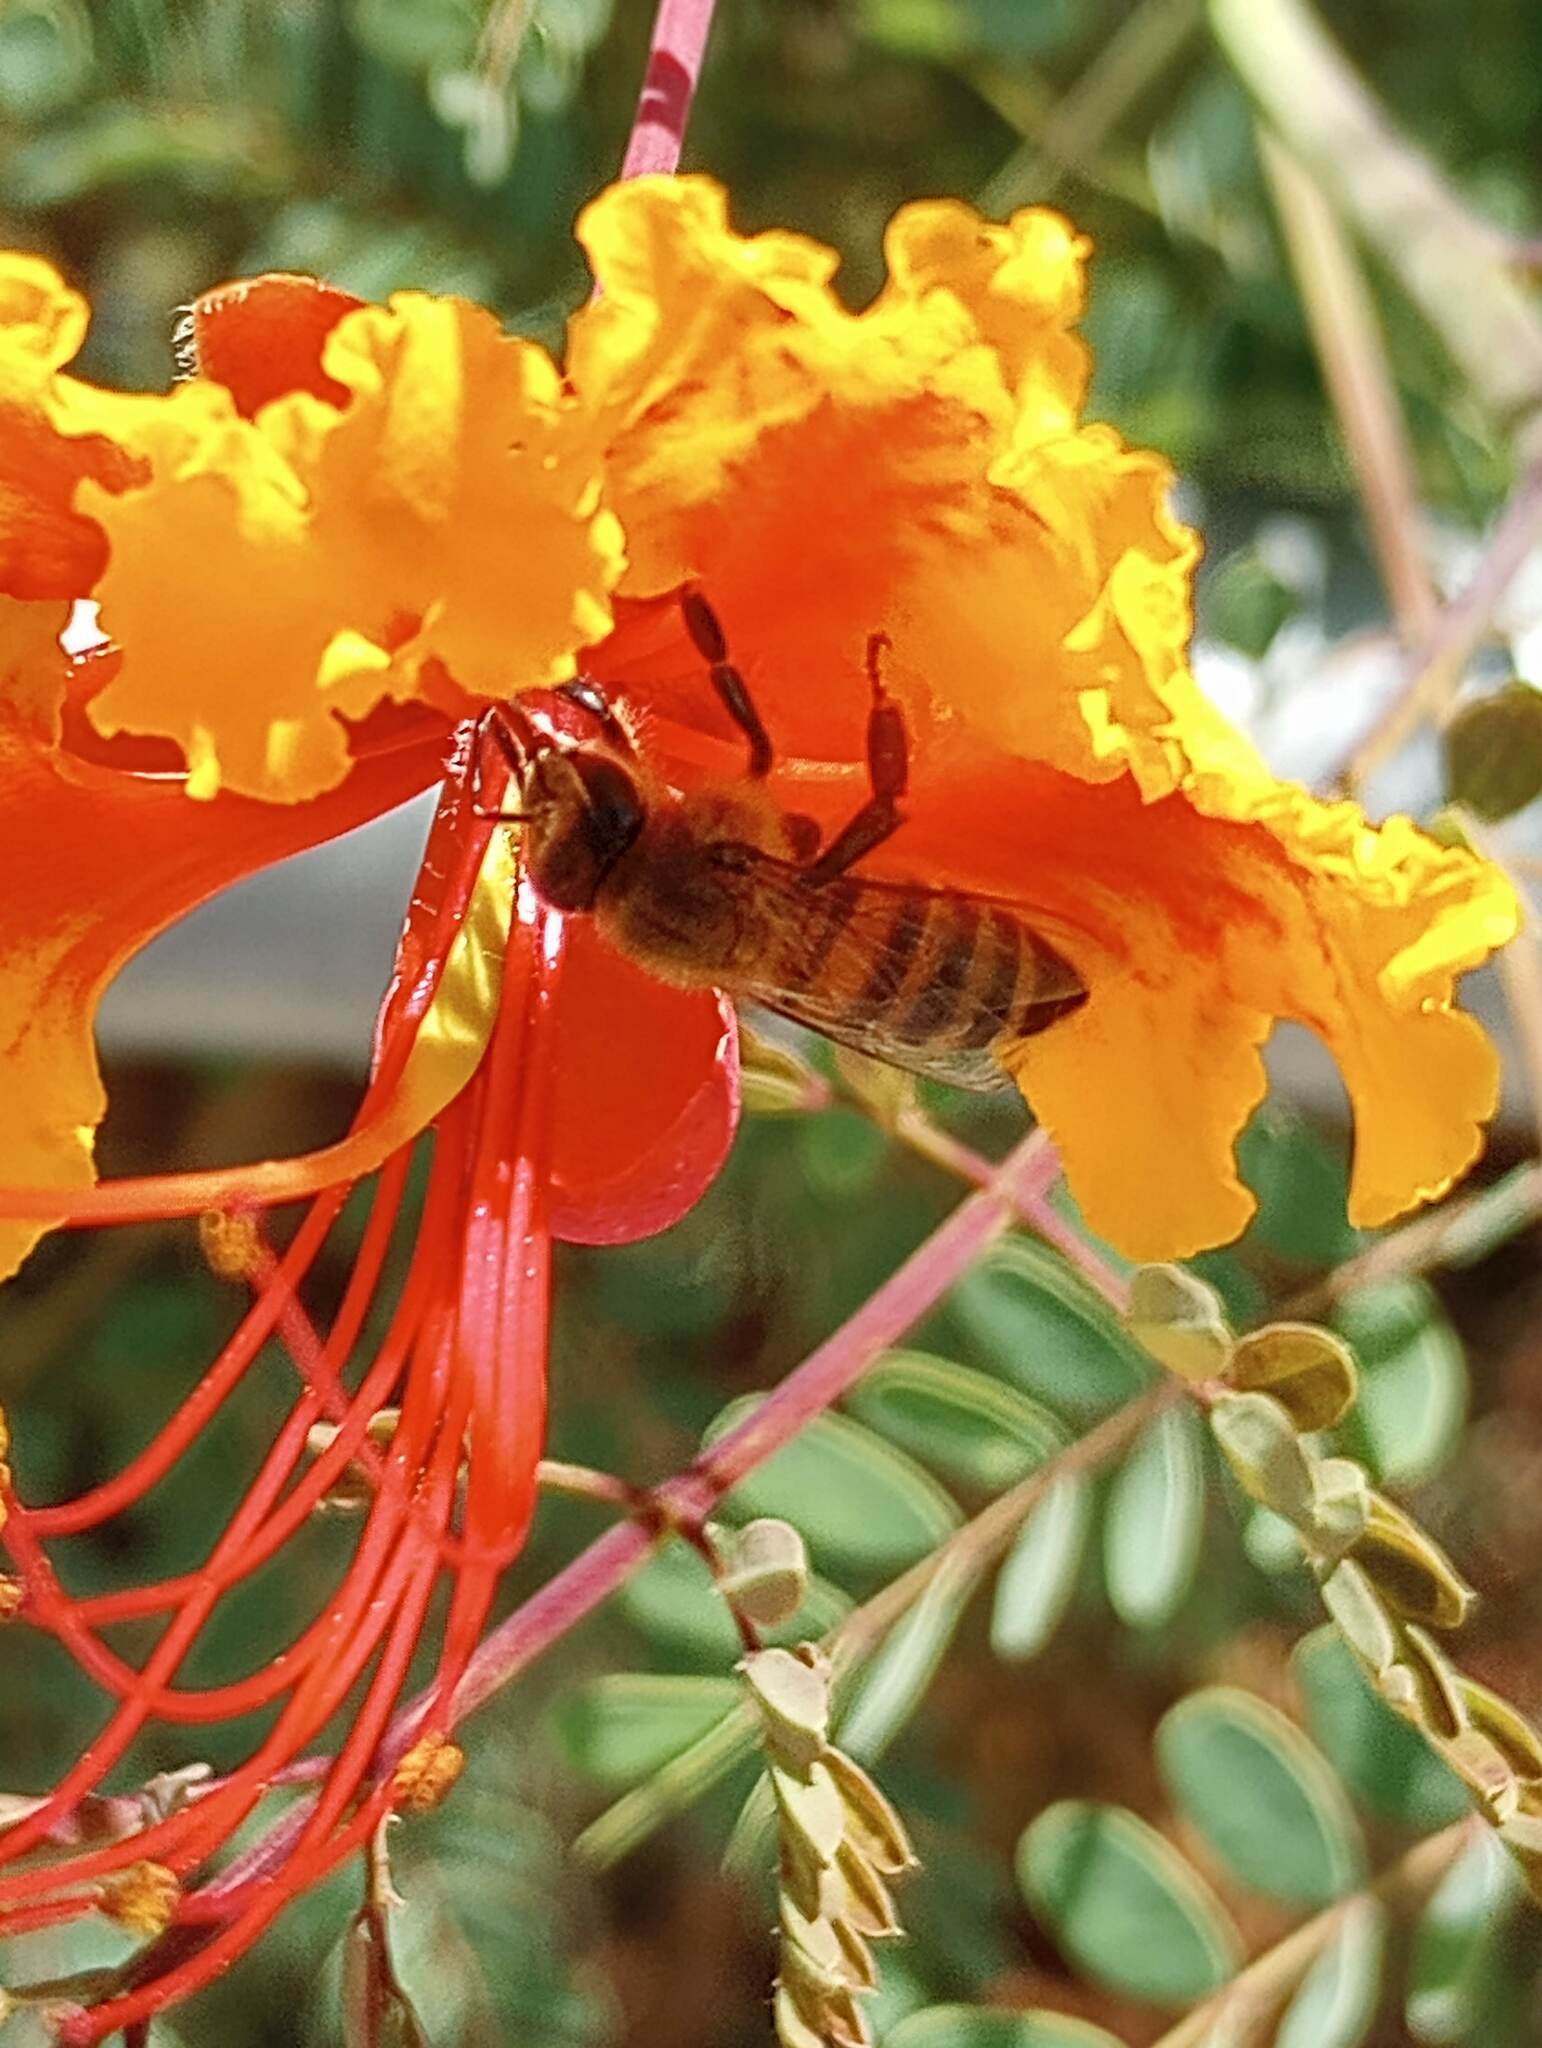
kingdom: Animalia
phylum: Arthropoda
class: Insecta
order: Hymenoptera
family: Apidae
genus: Apis
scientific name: Apis mellifera
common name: Honey bee
